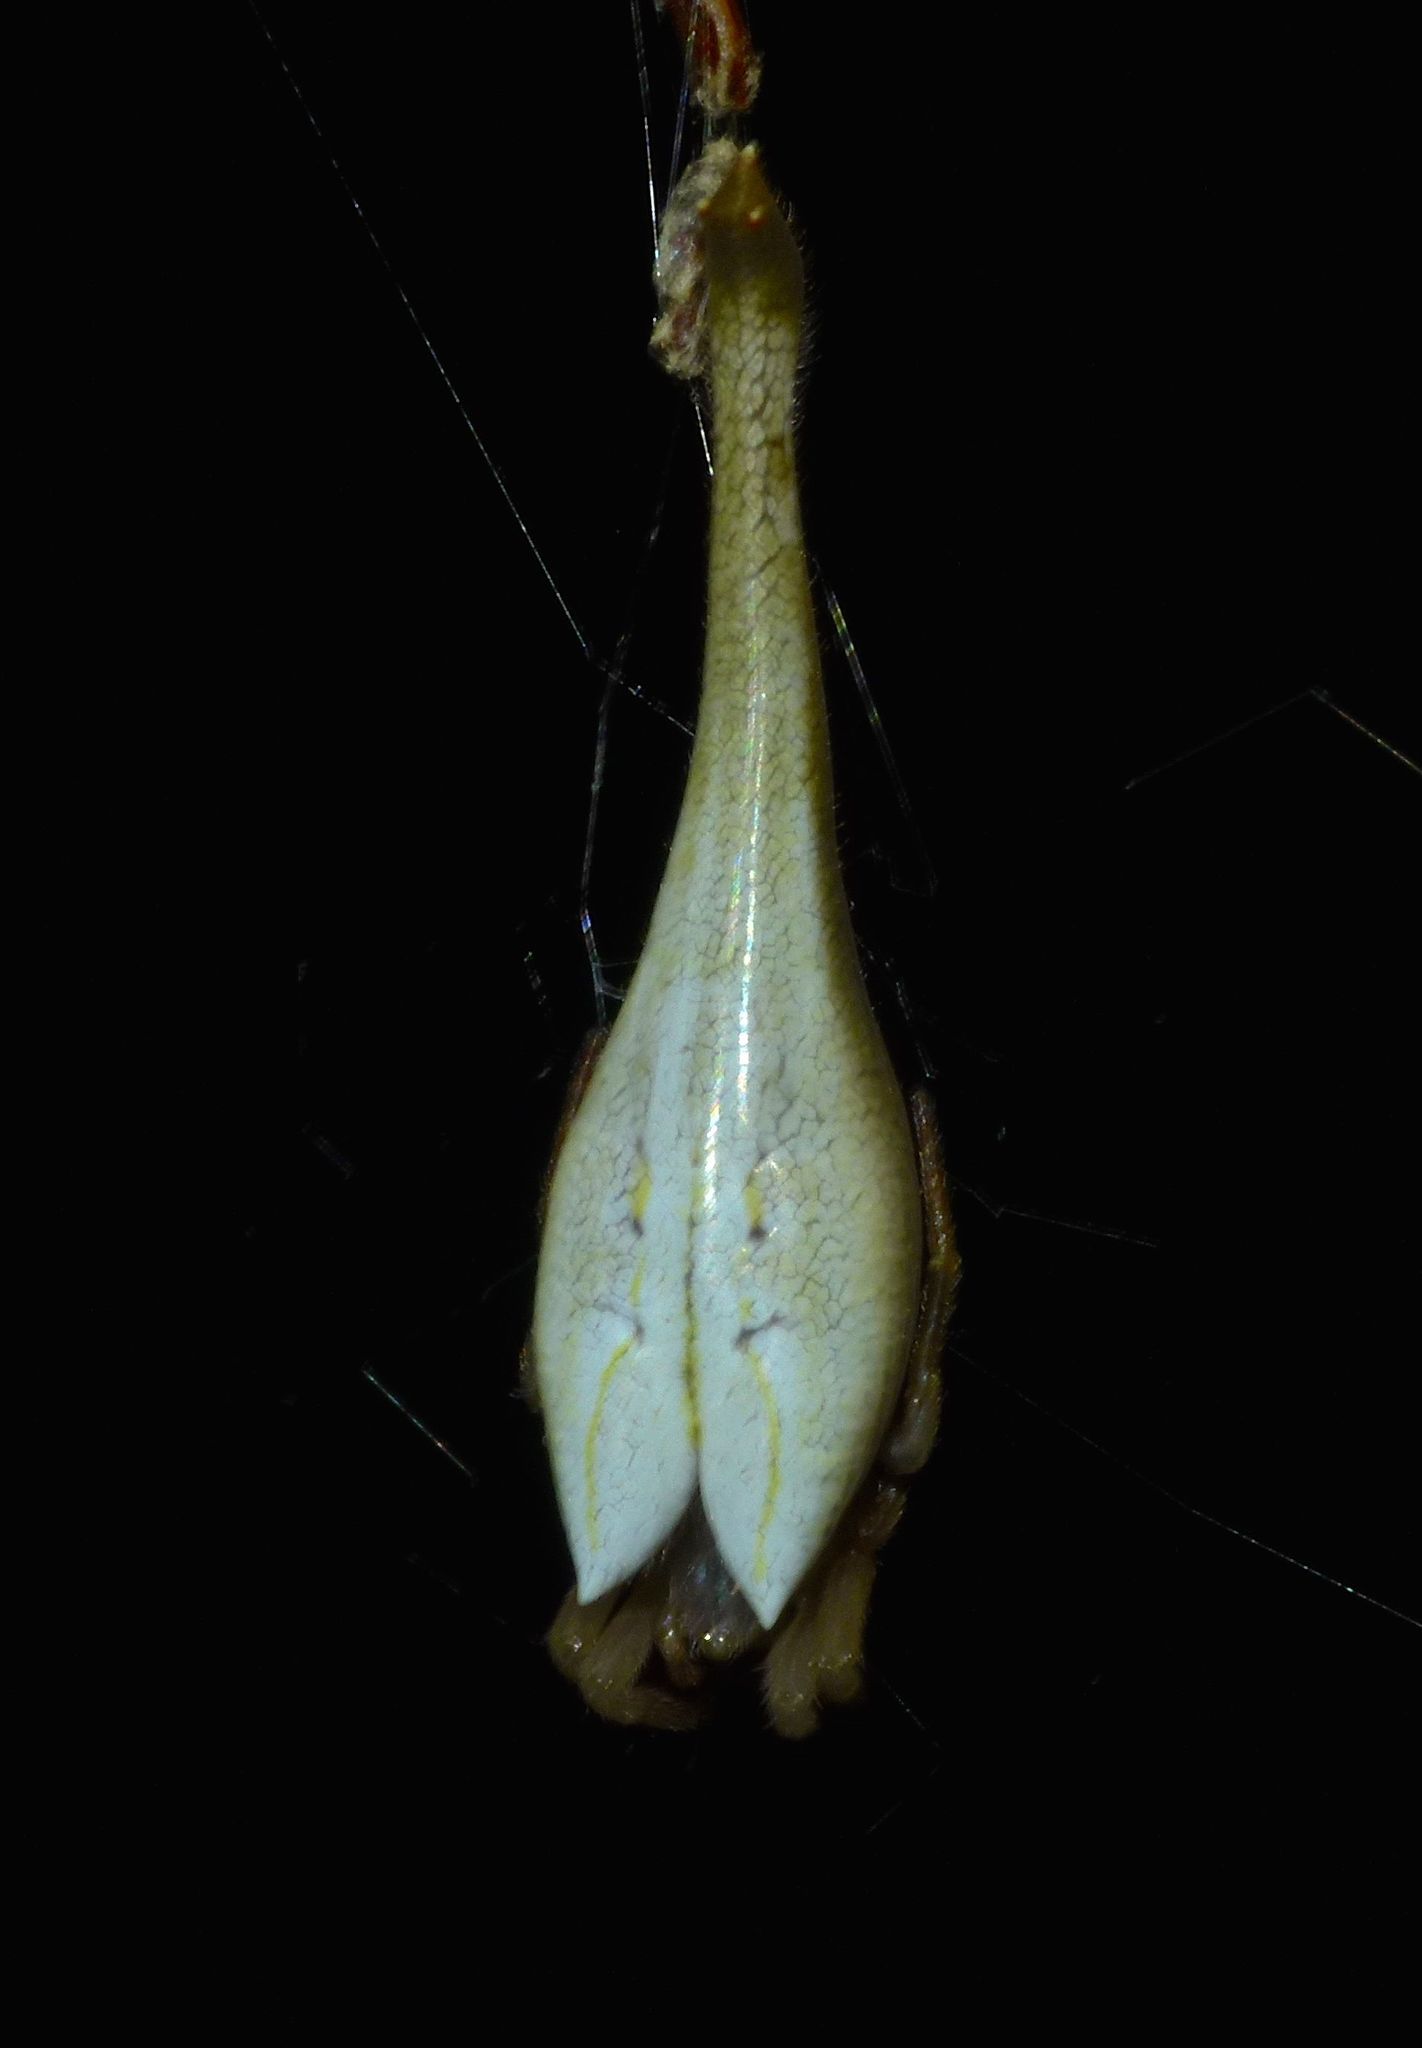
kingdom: Animalia
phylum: Arthropoda
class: Arachnida
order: Araneae
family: Araneidae
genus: Arachnura
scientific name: Arachnura feredayi
